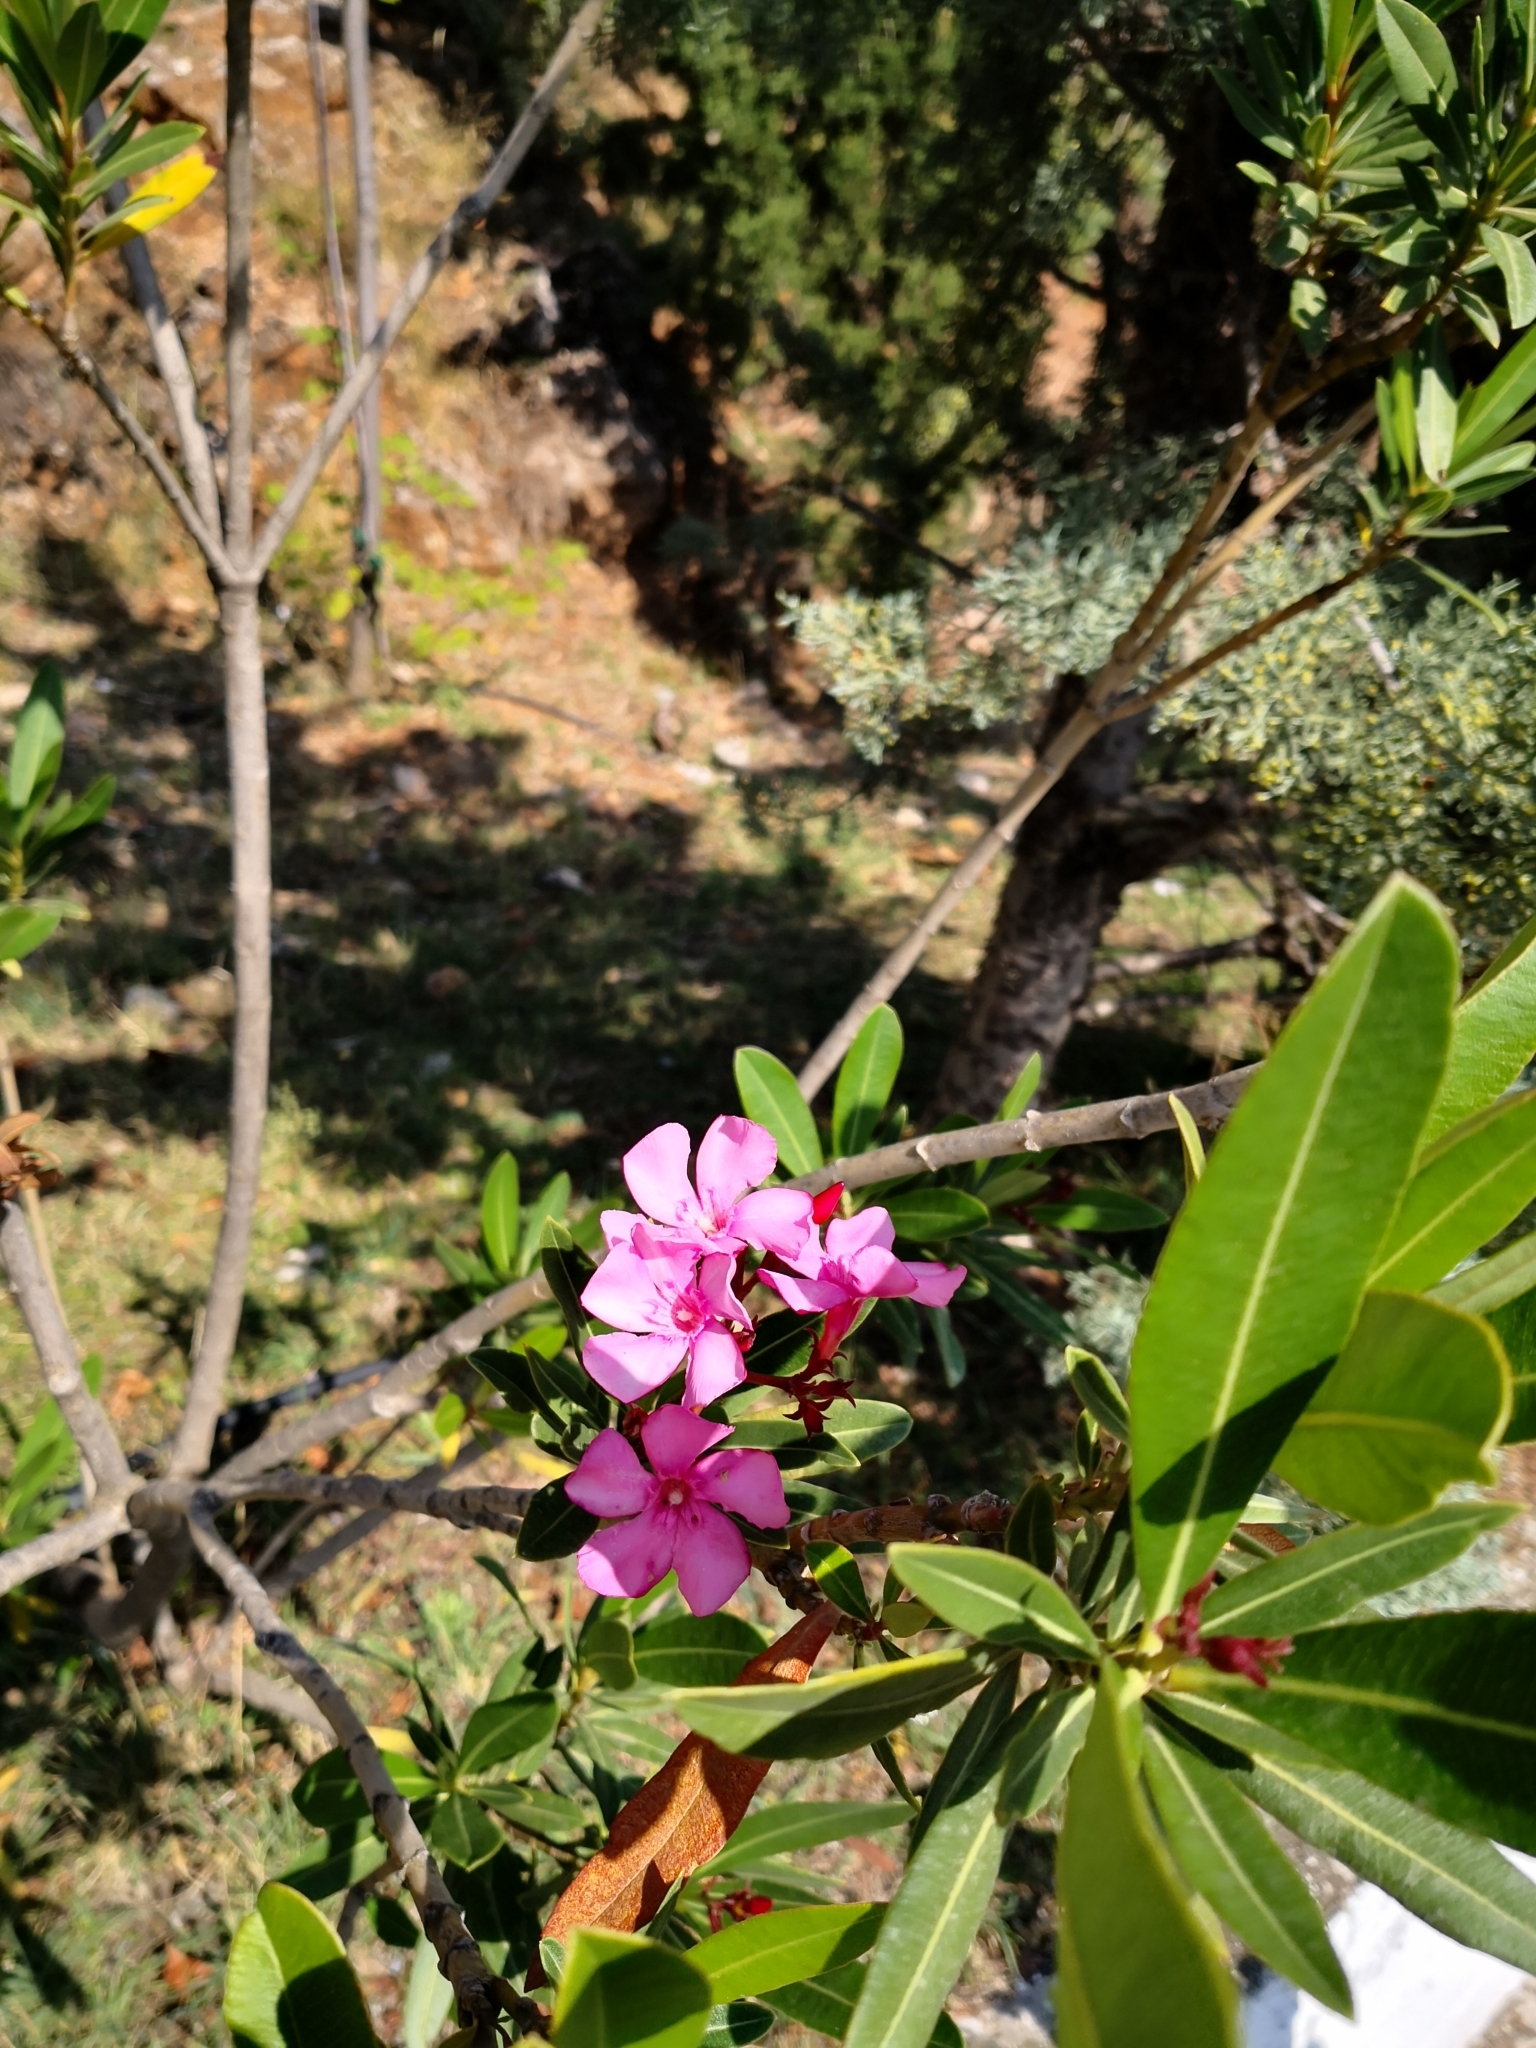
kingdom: Plantae
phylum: Tracheophyta
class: Magnoliopsida
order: Gentianales
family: Apocynaceae
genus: Nerium
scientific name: Nerium oleander
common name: Oleander
